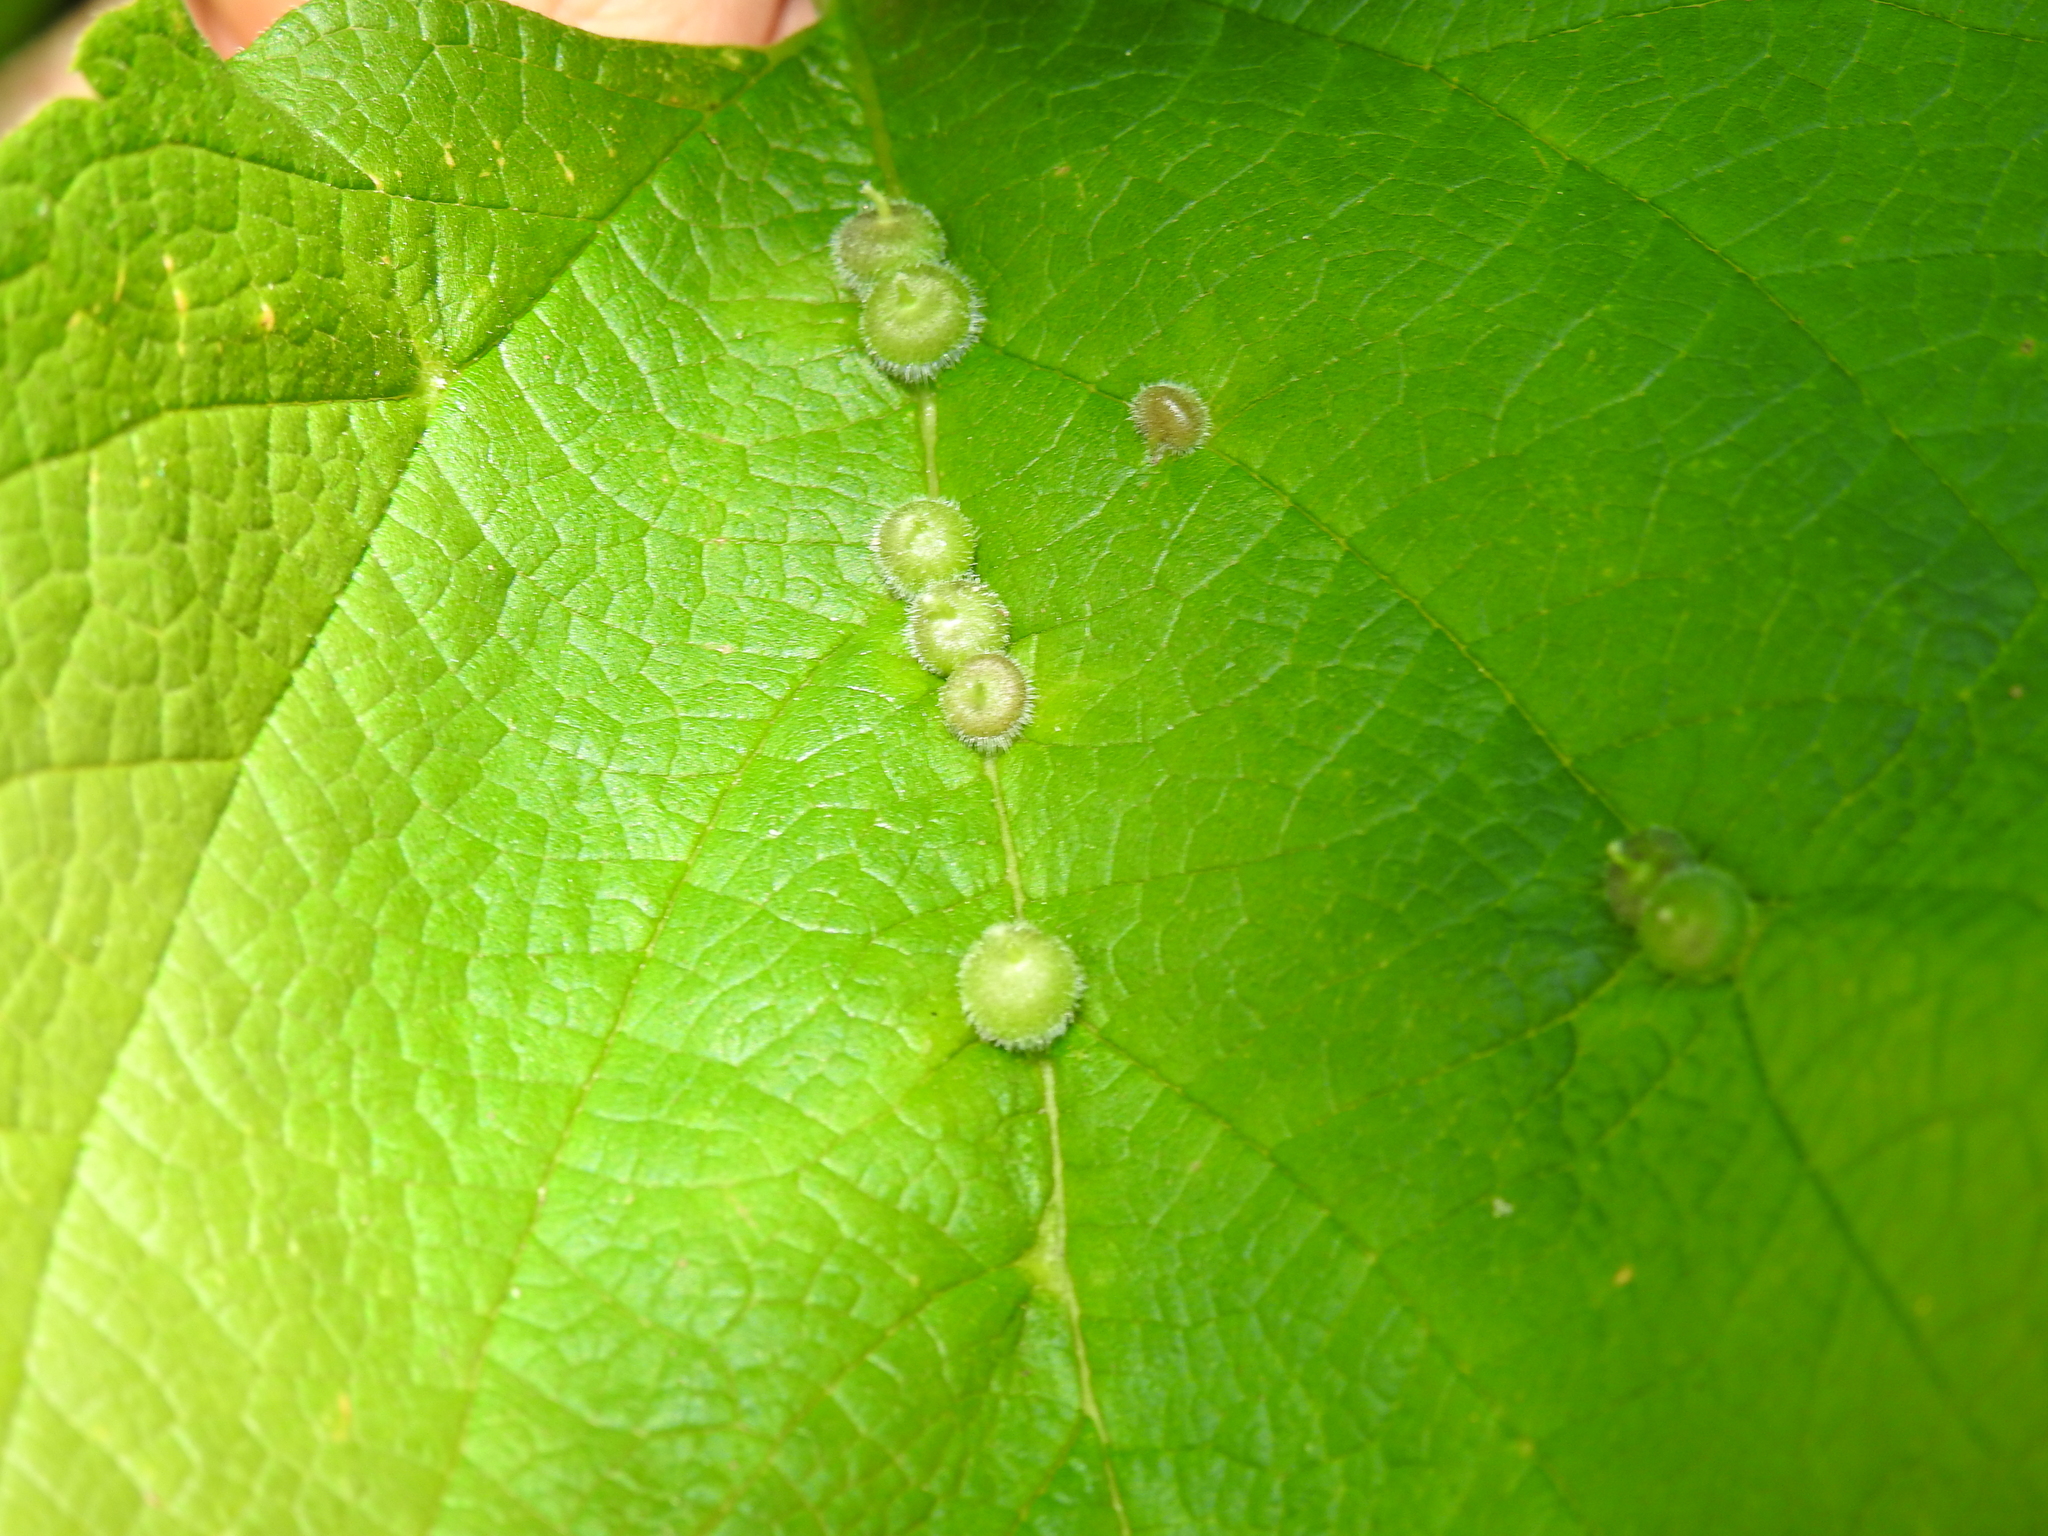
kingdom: Animalia
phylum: Arthropoda
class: Insecta
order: Diptera
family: Cecidomyiidae
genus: Celticecis
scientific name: Celticecis celtiphyllia
